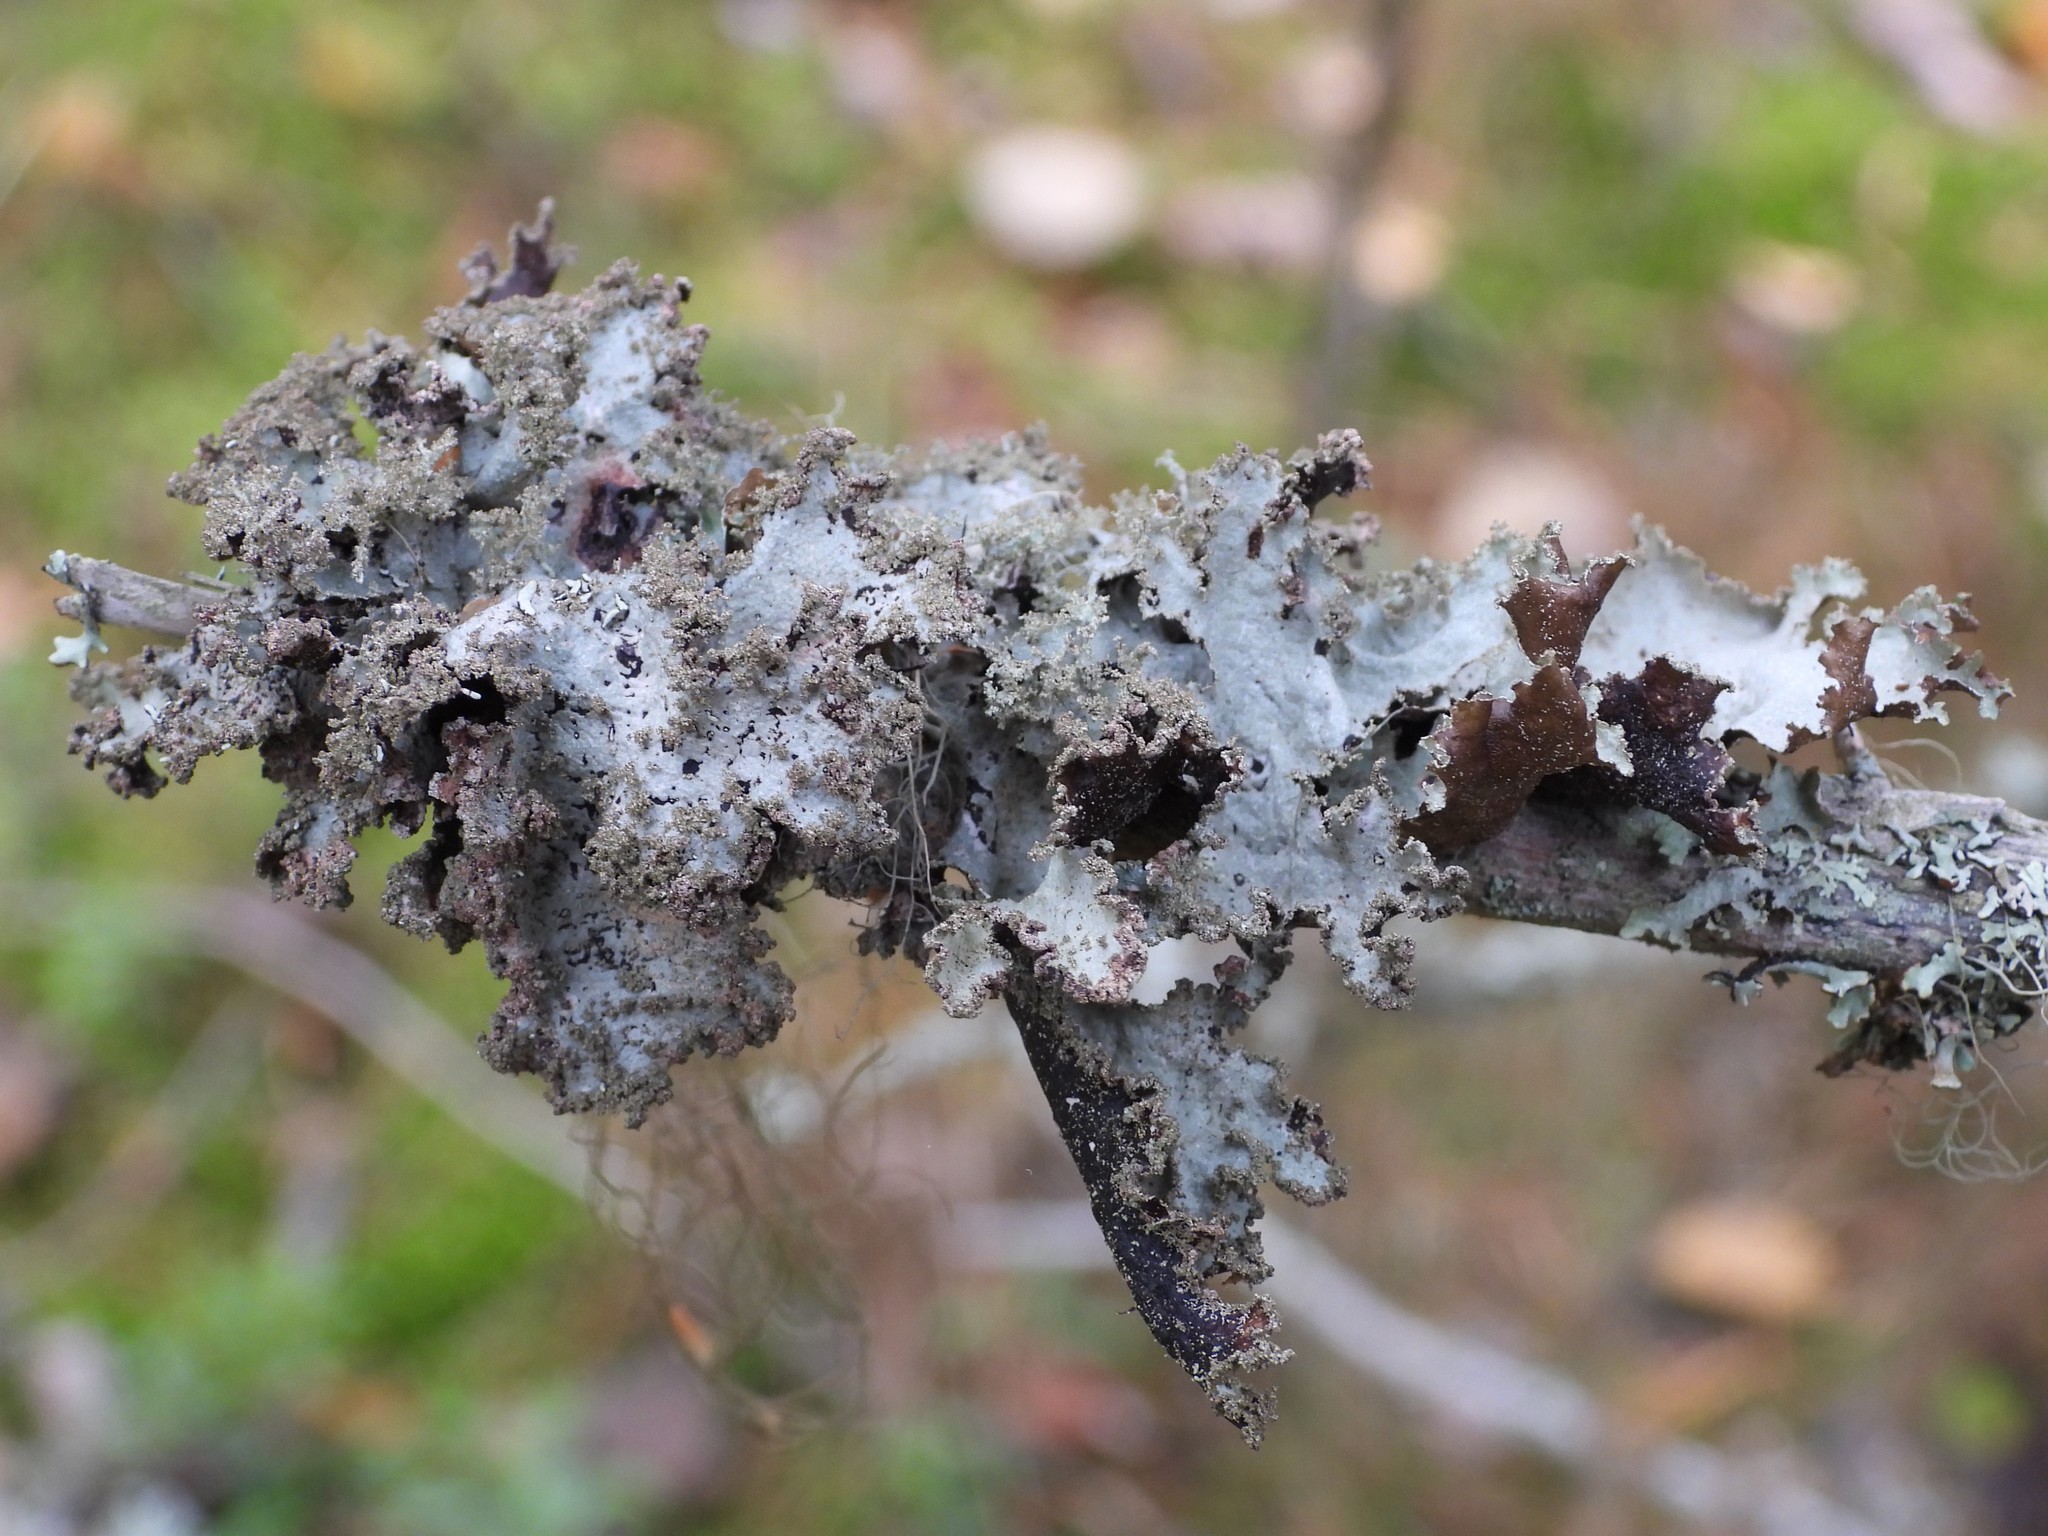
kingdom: Fungi
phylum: Ascomycota
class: Lecanoromycetes
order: Lecanorales
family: Parmeliaceae
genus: Platismatia
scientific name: Platismatia glauca
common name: Varied rag lichen
